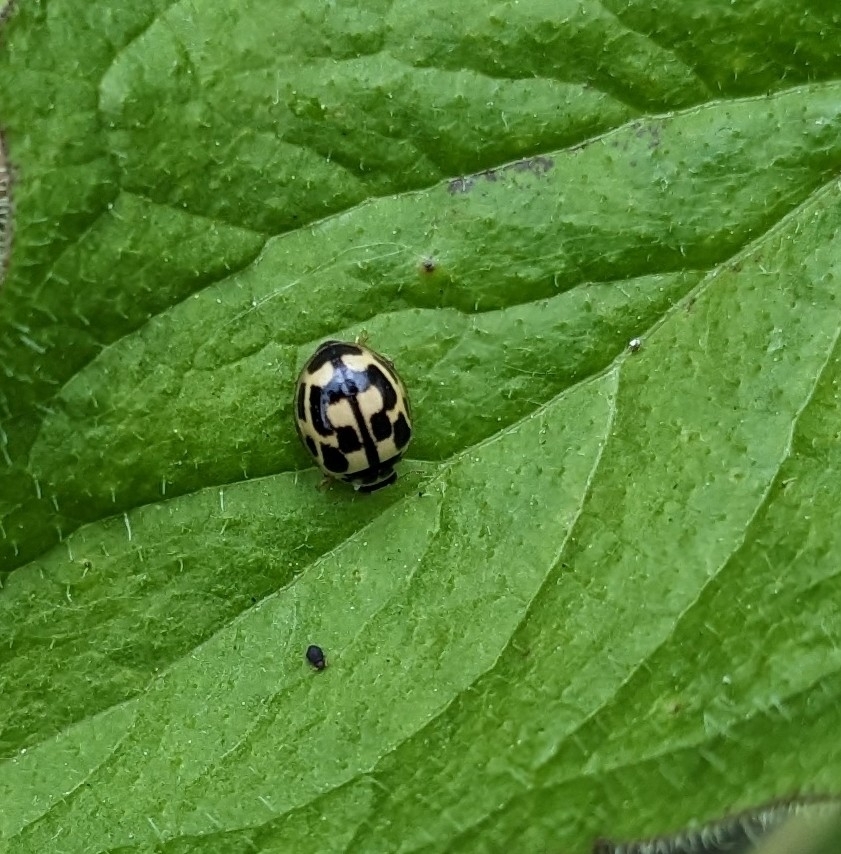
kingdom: Animalia
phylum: Arthropoda
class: Insecta
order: Coleoptera
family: Coccinellidae
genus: Propylaea
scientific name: Propylaea quatuordecimpunctata
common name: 14-spotted ladybird beetle
